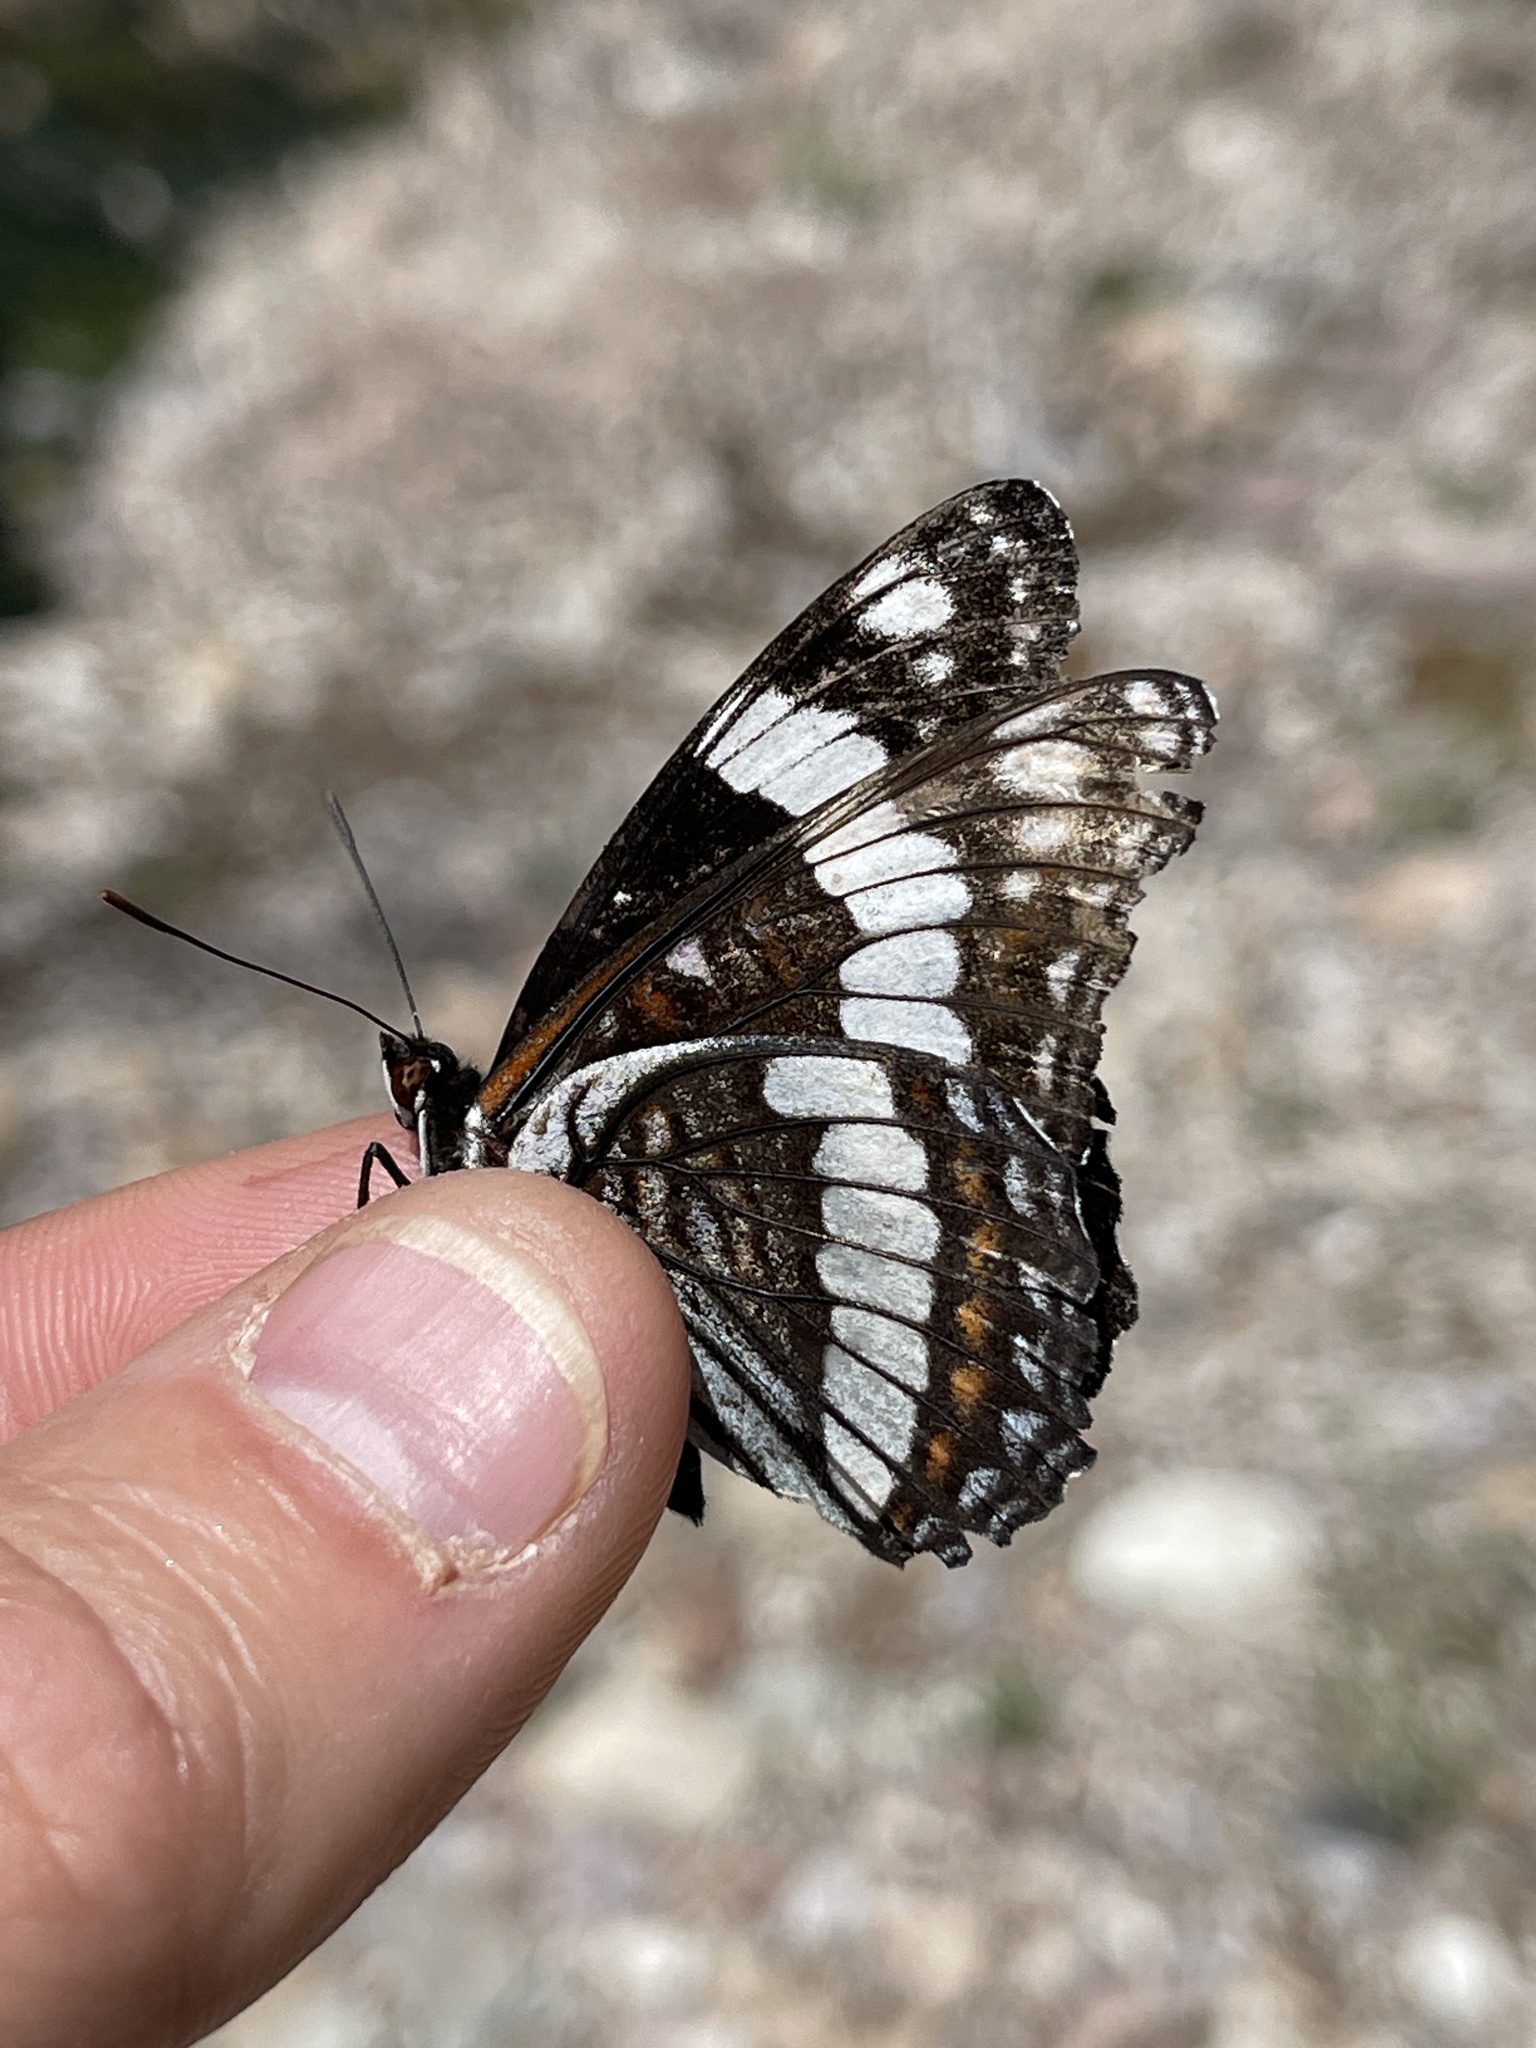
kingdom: Animalia
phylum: Arthropoda
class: Insecta
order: Lepidoptera
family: Nymphalidae
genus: Limenitis
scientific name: Limenitis weidemeyerii
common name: Weidemeyer's admiral
